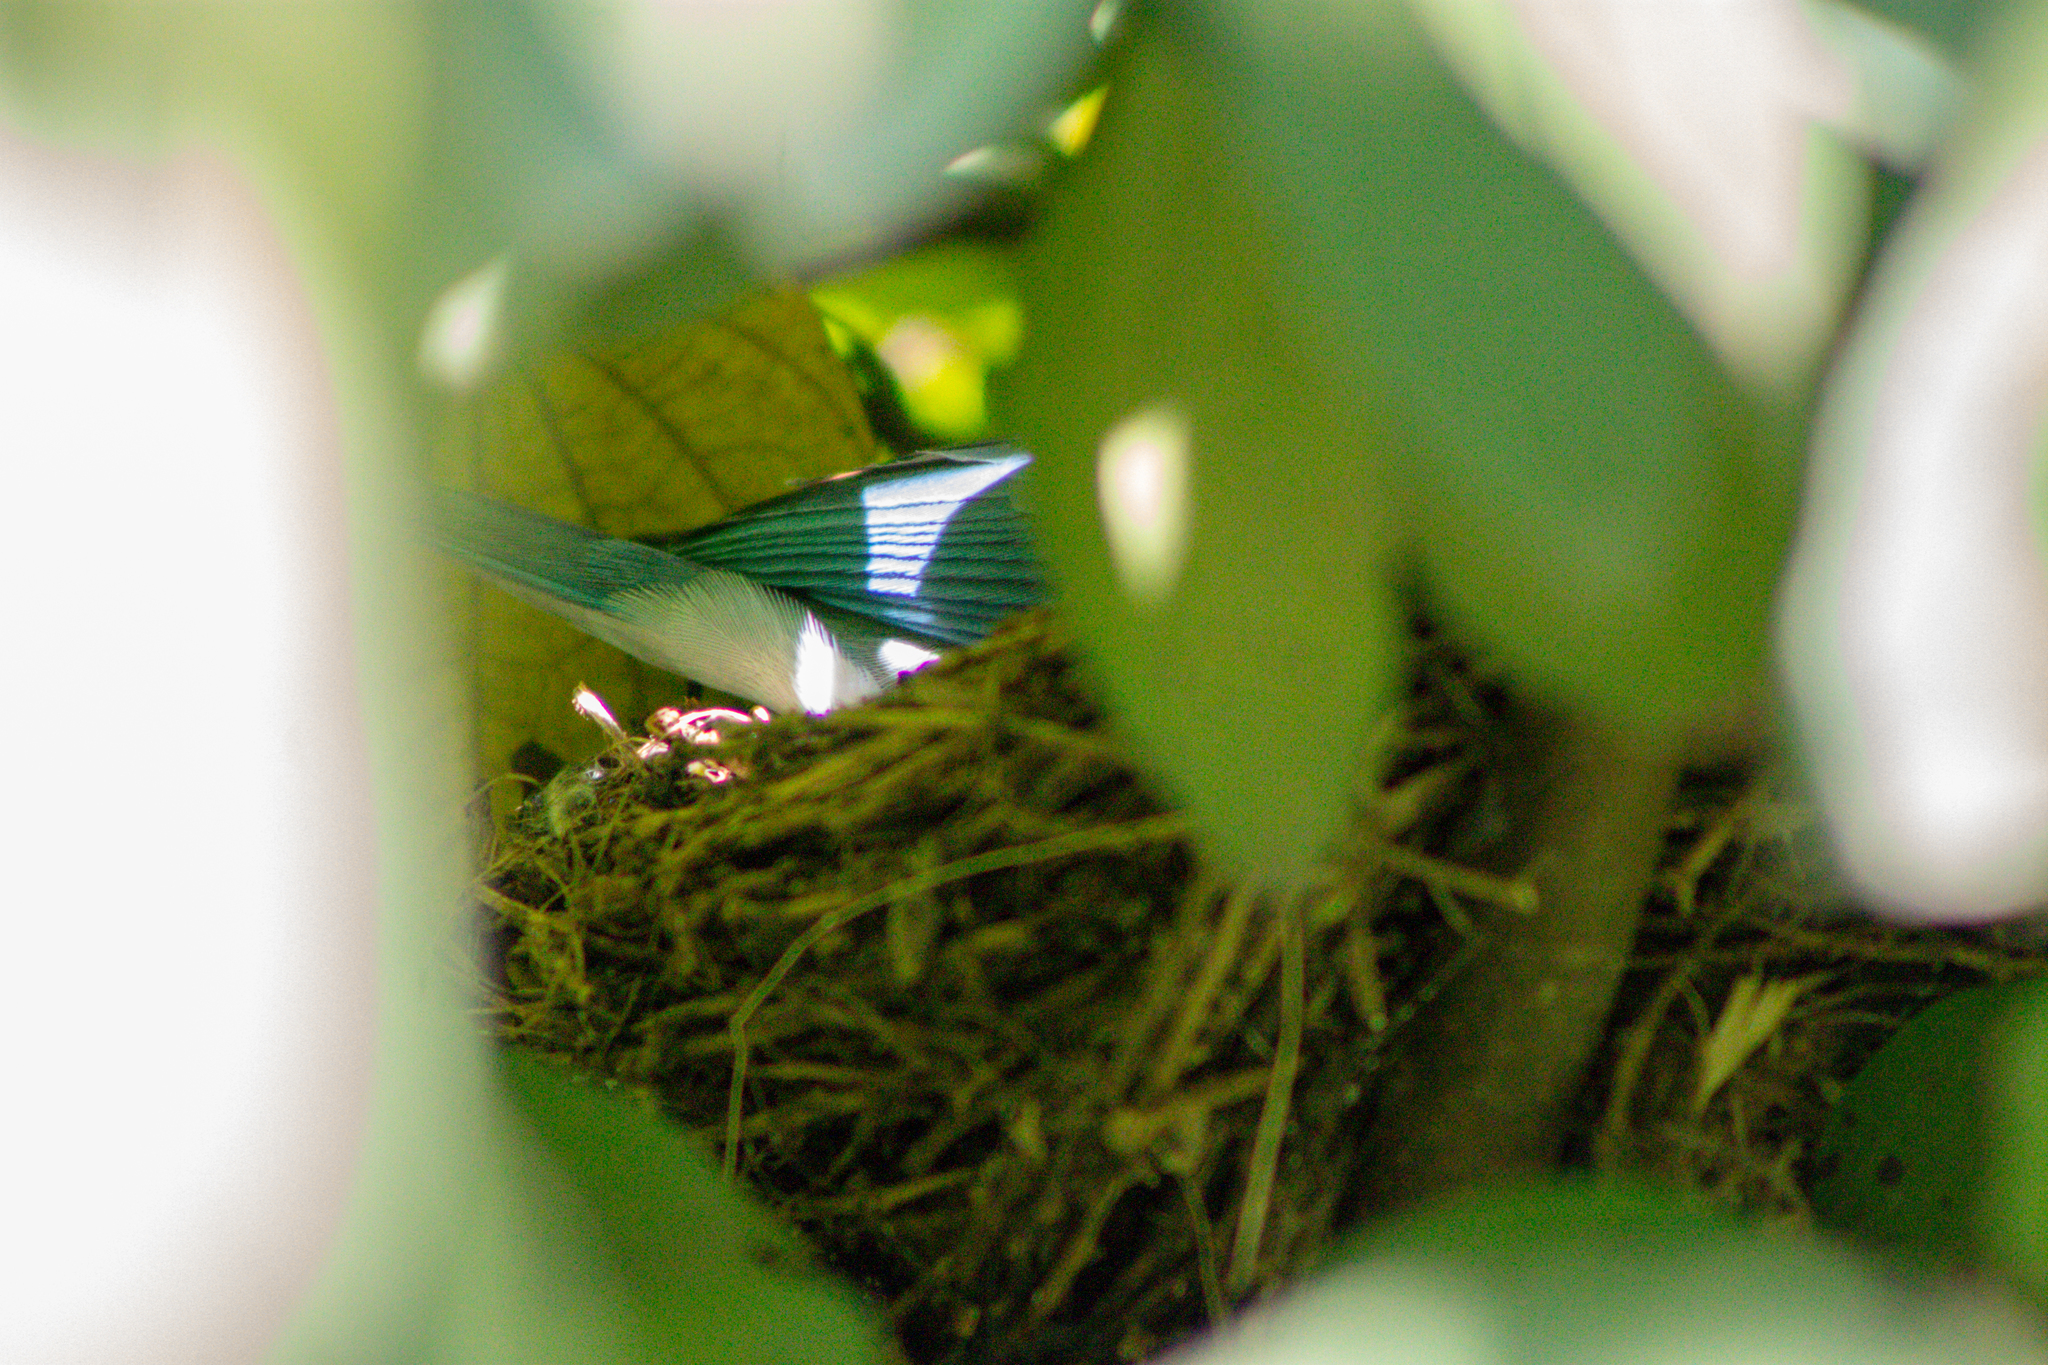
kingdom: Animalia
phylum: Chordata
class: Aves
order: Passeriformes
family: Thraupidae
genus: Thraupis
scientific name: Thraupis episcopus
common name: Blue-grey tanager
